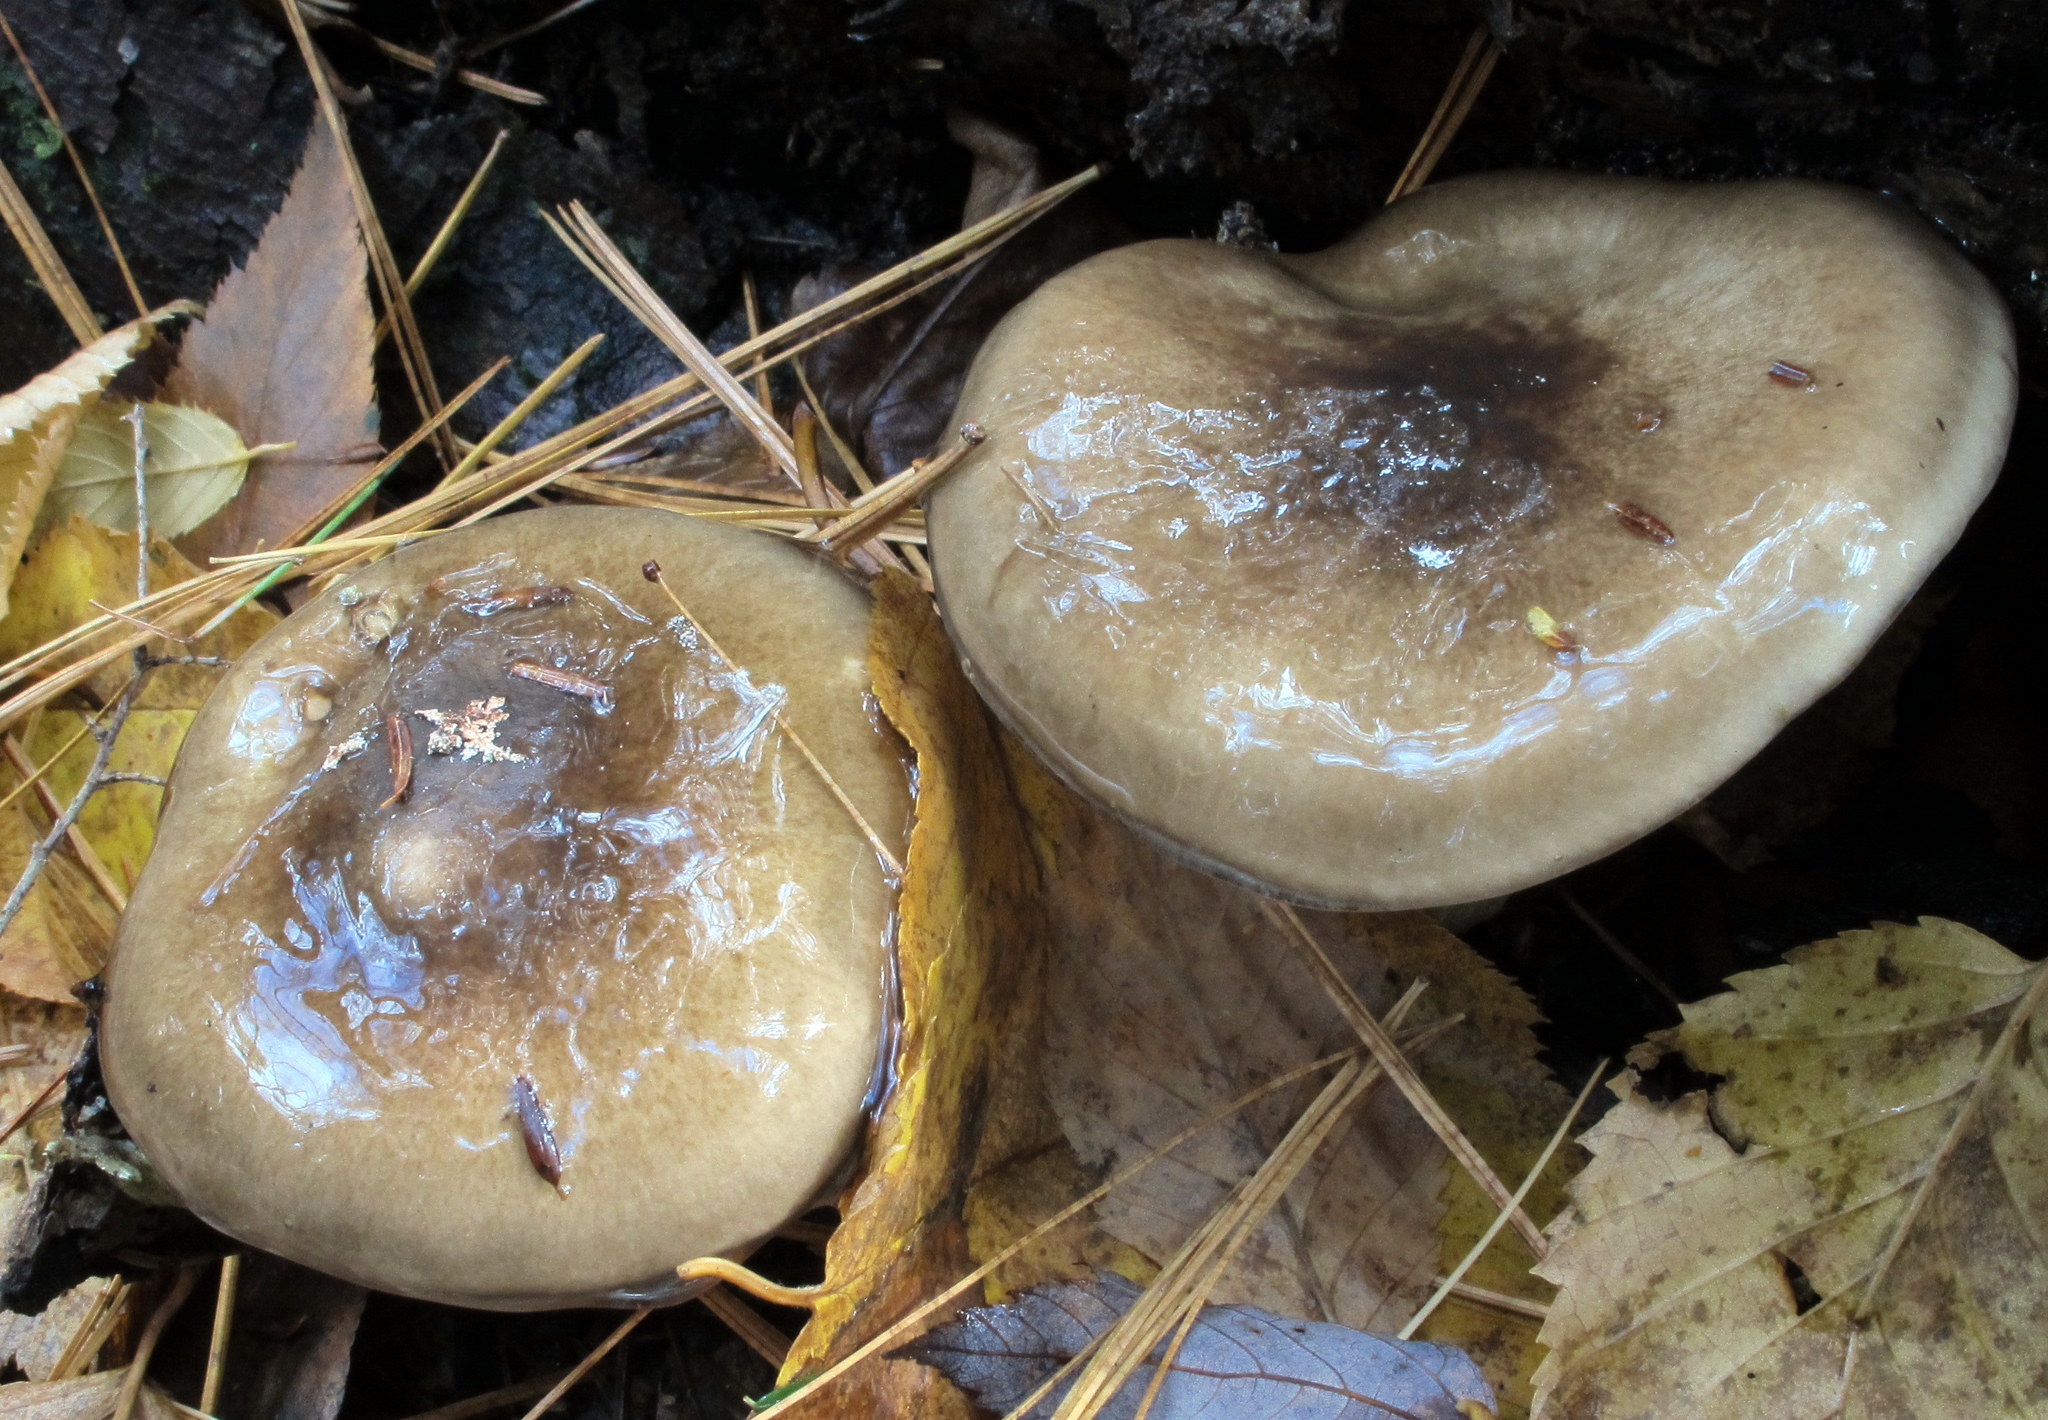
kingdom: Fungi
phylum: Basidiomycota
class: Agaricomycetes
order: Agaricales
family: Hygrophoraceae
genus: Hygrophorus
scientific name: Hygrophorus fuligineus
